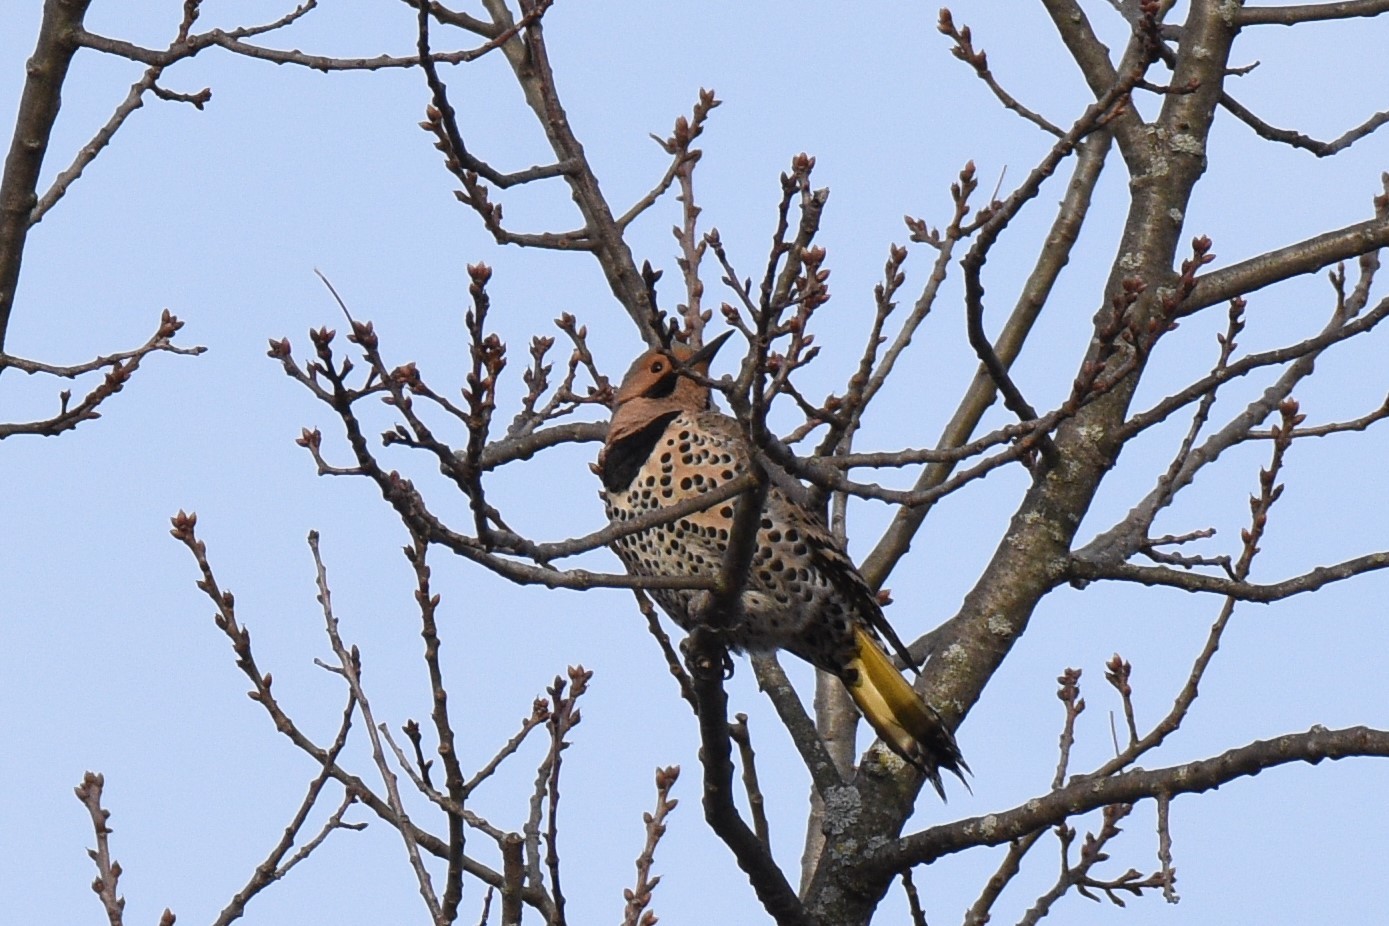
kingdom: Animalia
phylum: Chordata
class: Aves
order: Piciformes
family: Picidae
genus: Colaptes
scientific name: Colaptes auratus
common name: Northern flicker
